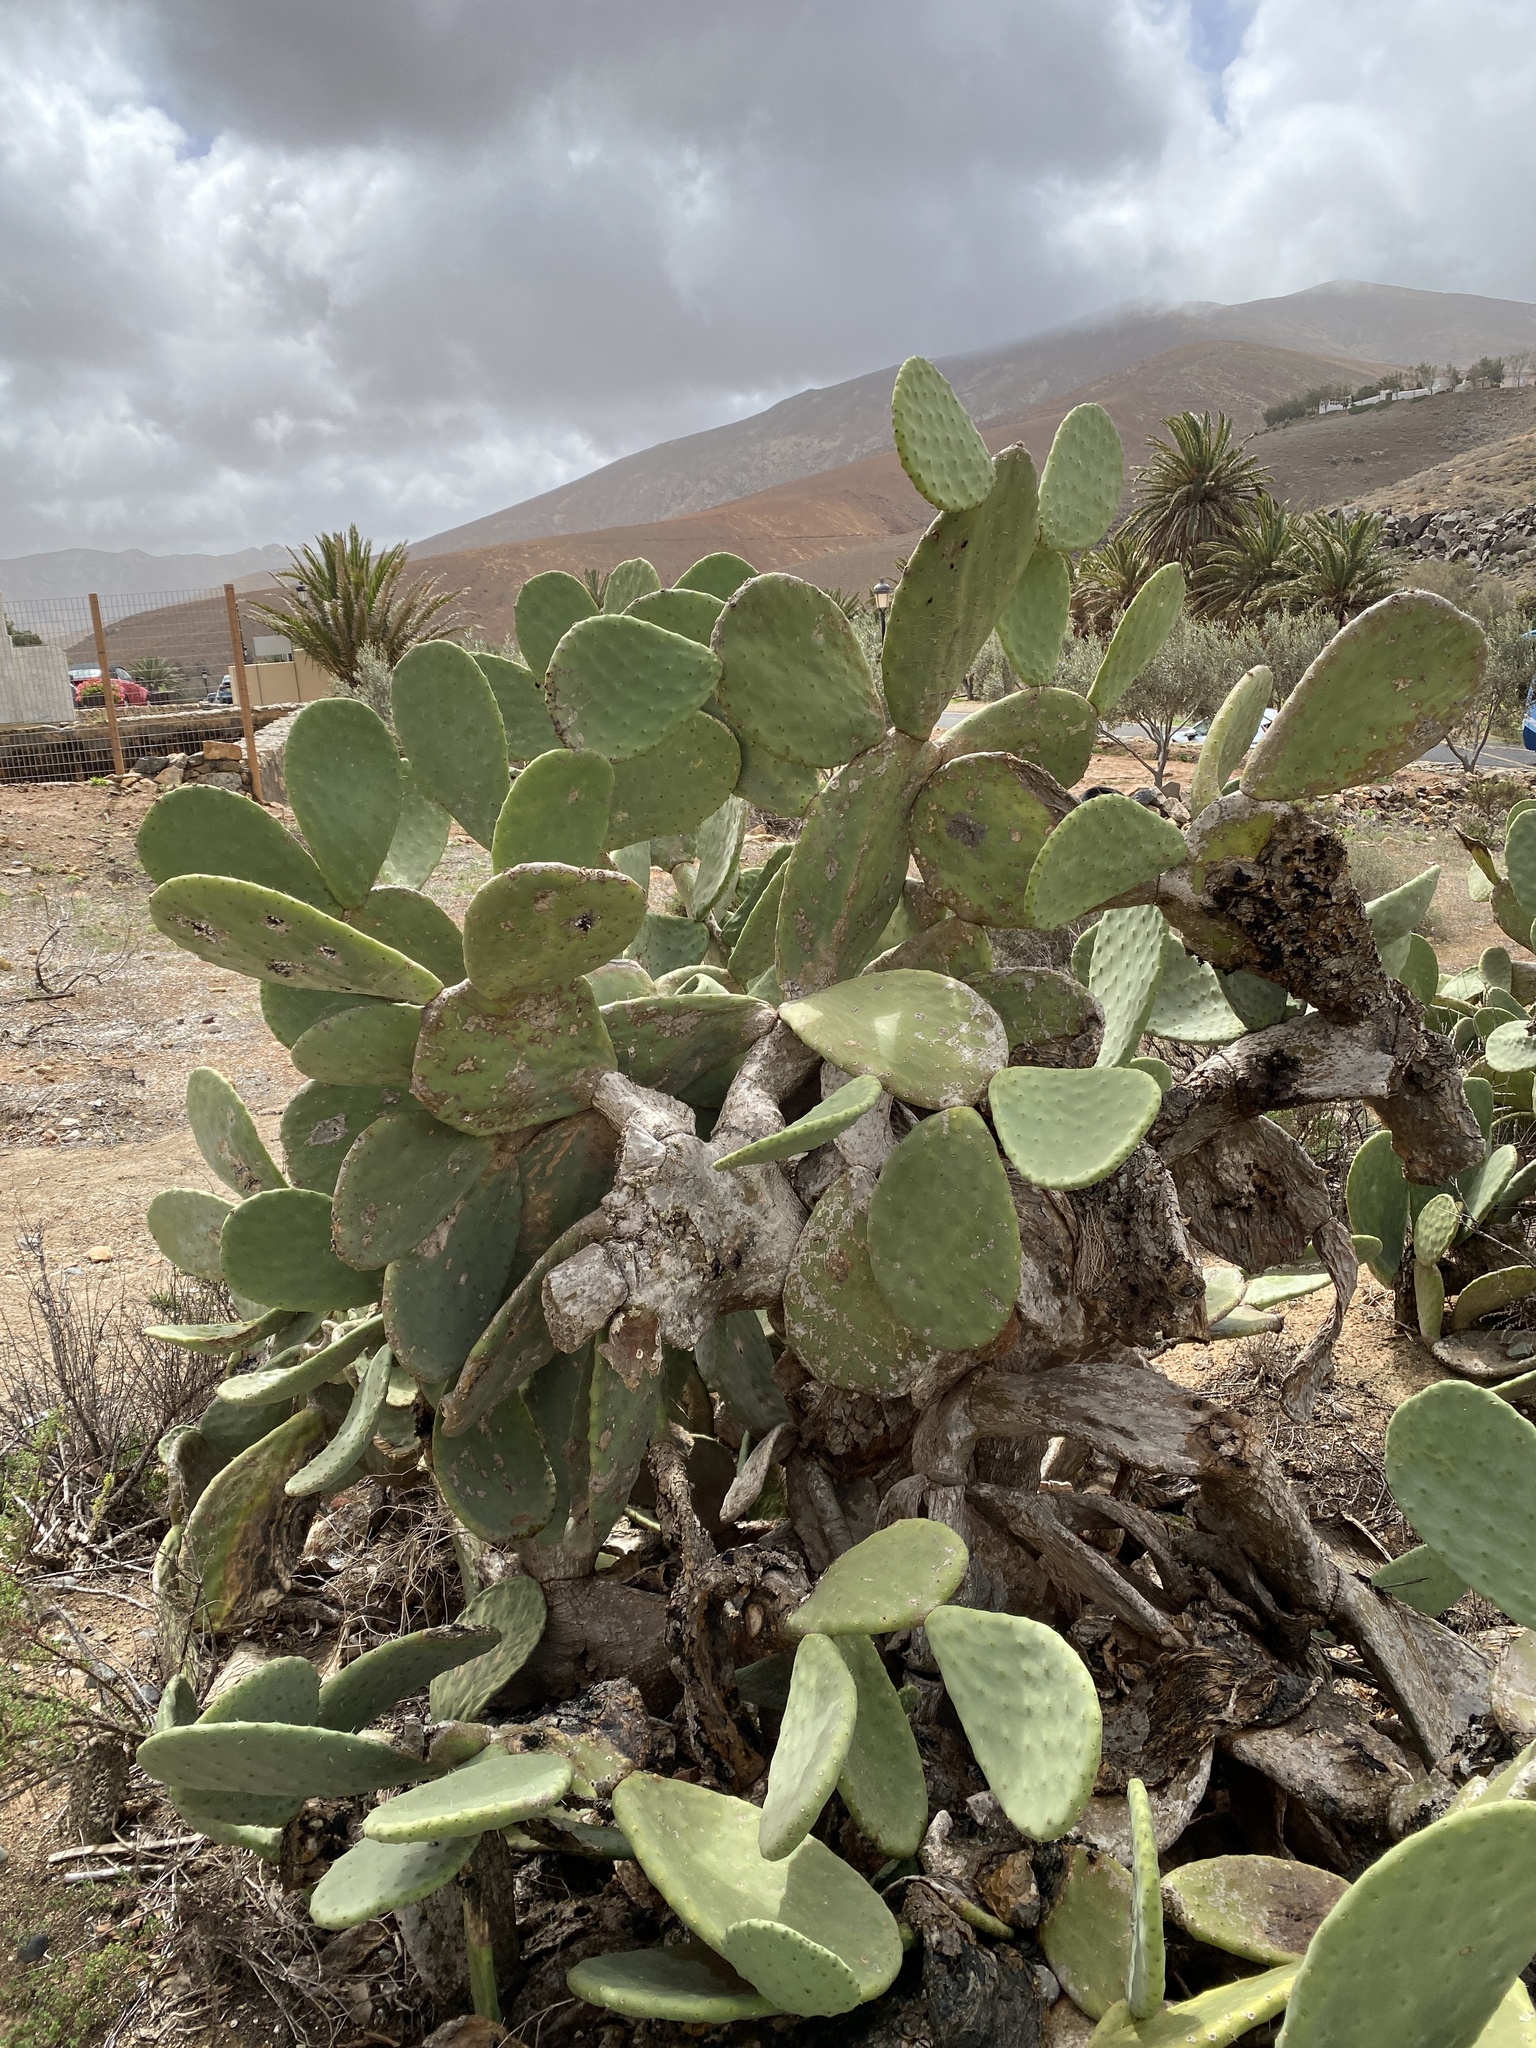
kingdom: Plantae
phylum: Tracheophyta
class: Magnoliopsida
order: Caryophyllales
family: Cactaceae
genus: Opuntia
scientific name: Opuntia ficus-indica
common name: Barbary fig
